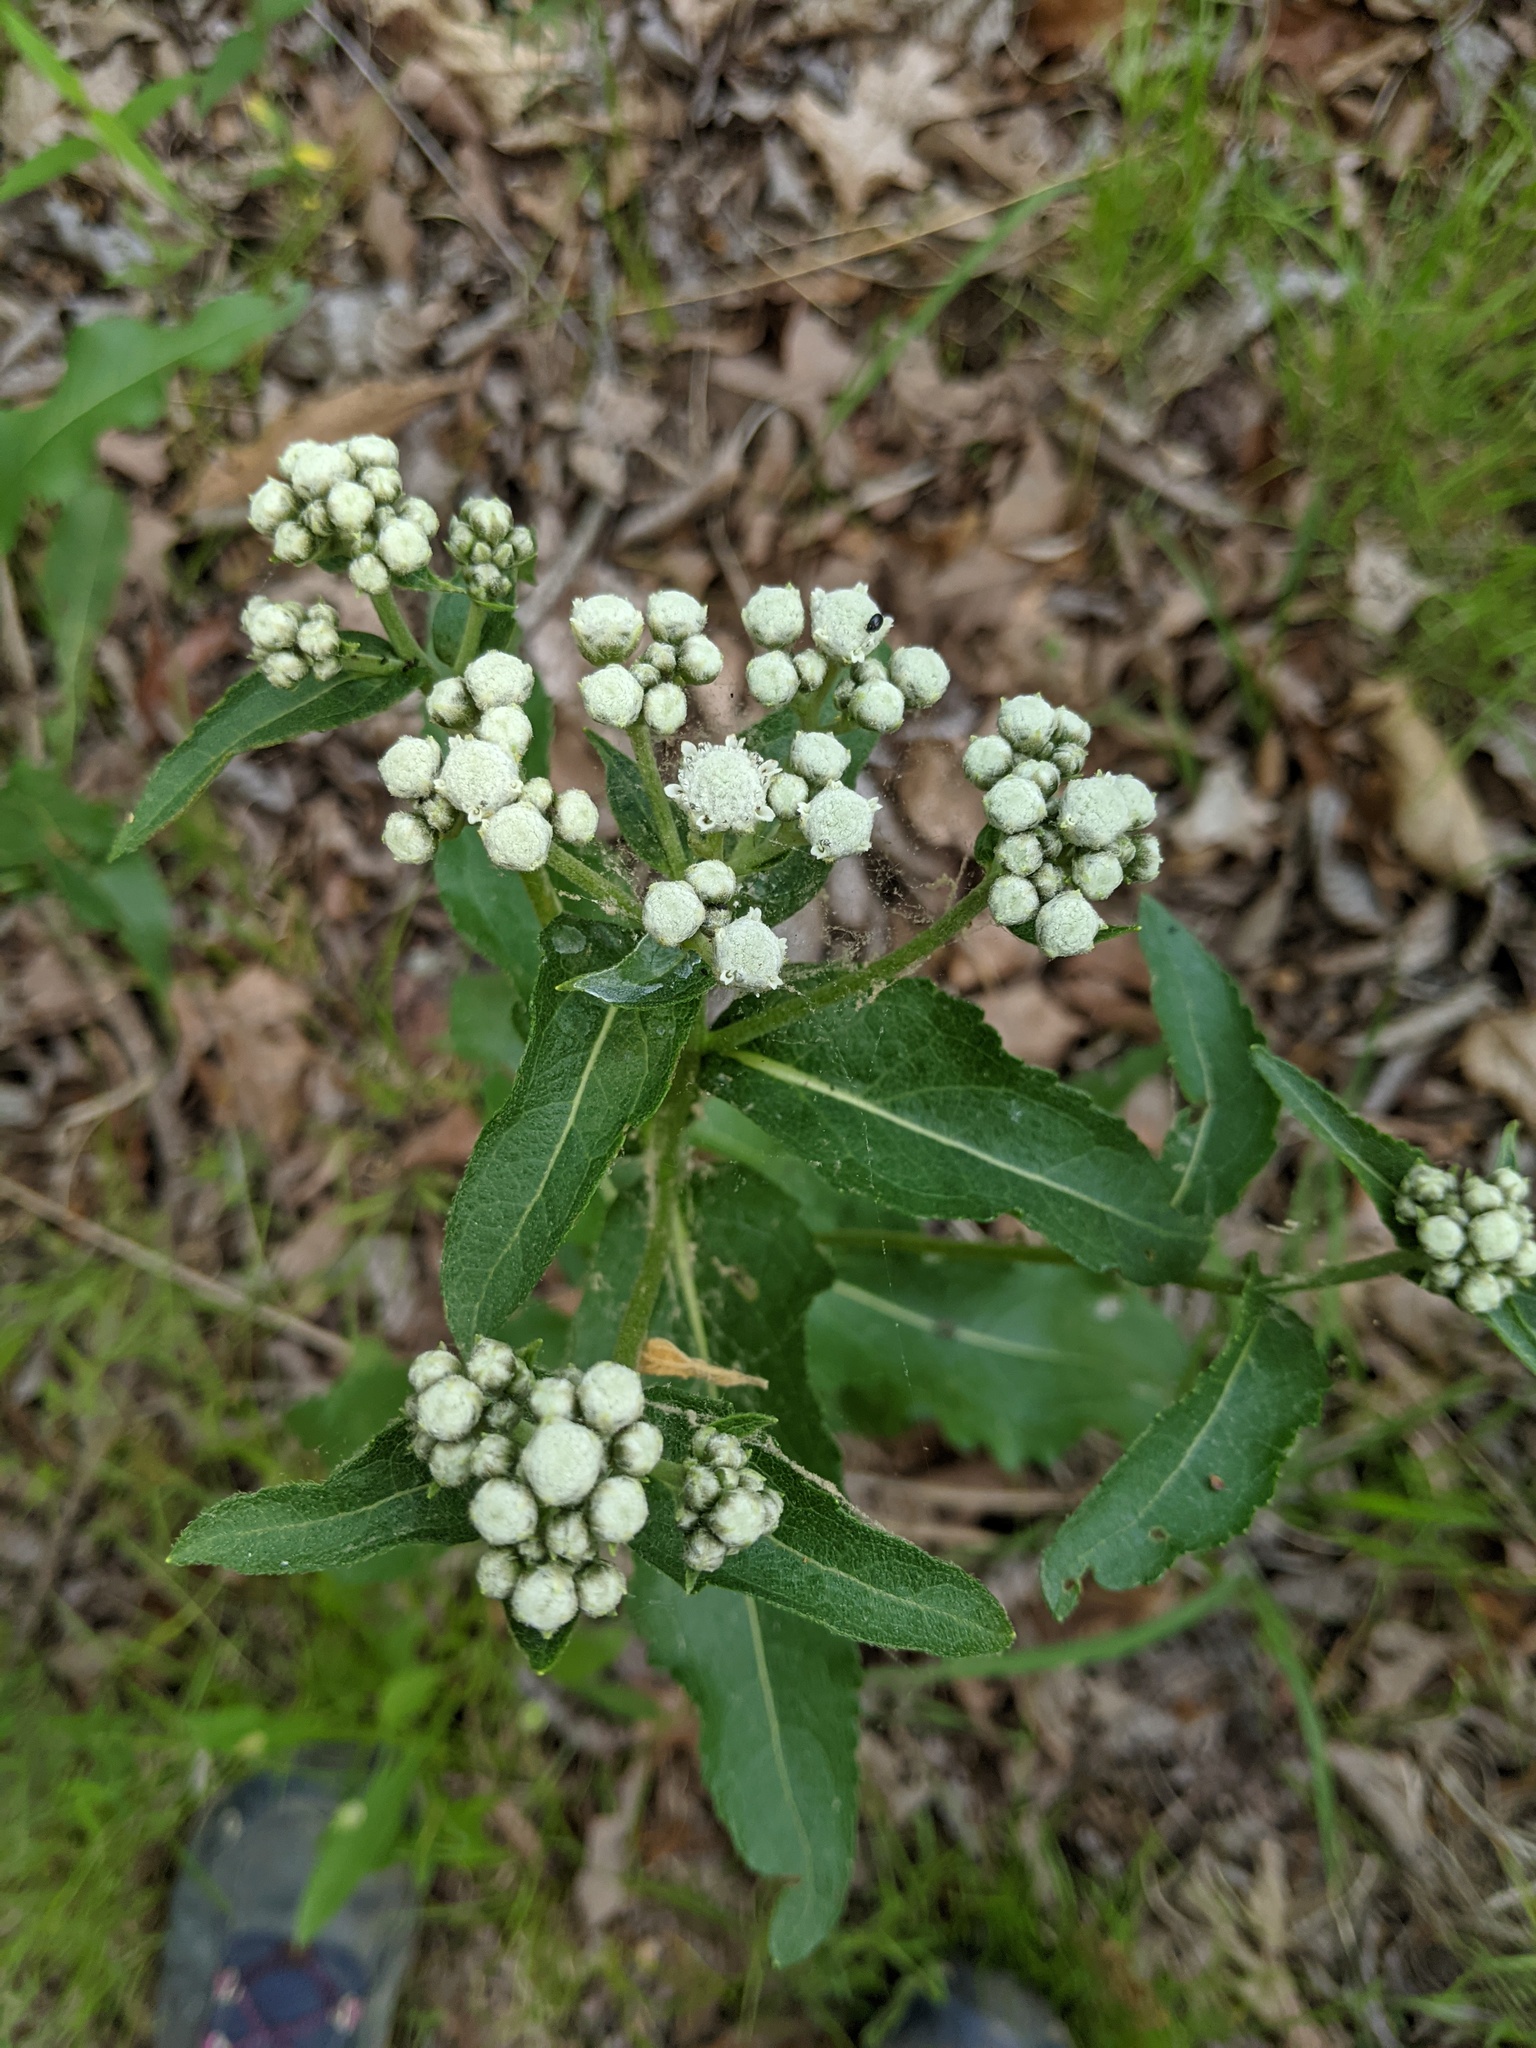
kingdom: Plantae
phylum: Tracheophyta
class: Magnoliopsida
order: Asterales
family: Asteraceae
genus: Parthenium
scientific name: Parthenium integrifolium
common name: American feverfew
